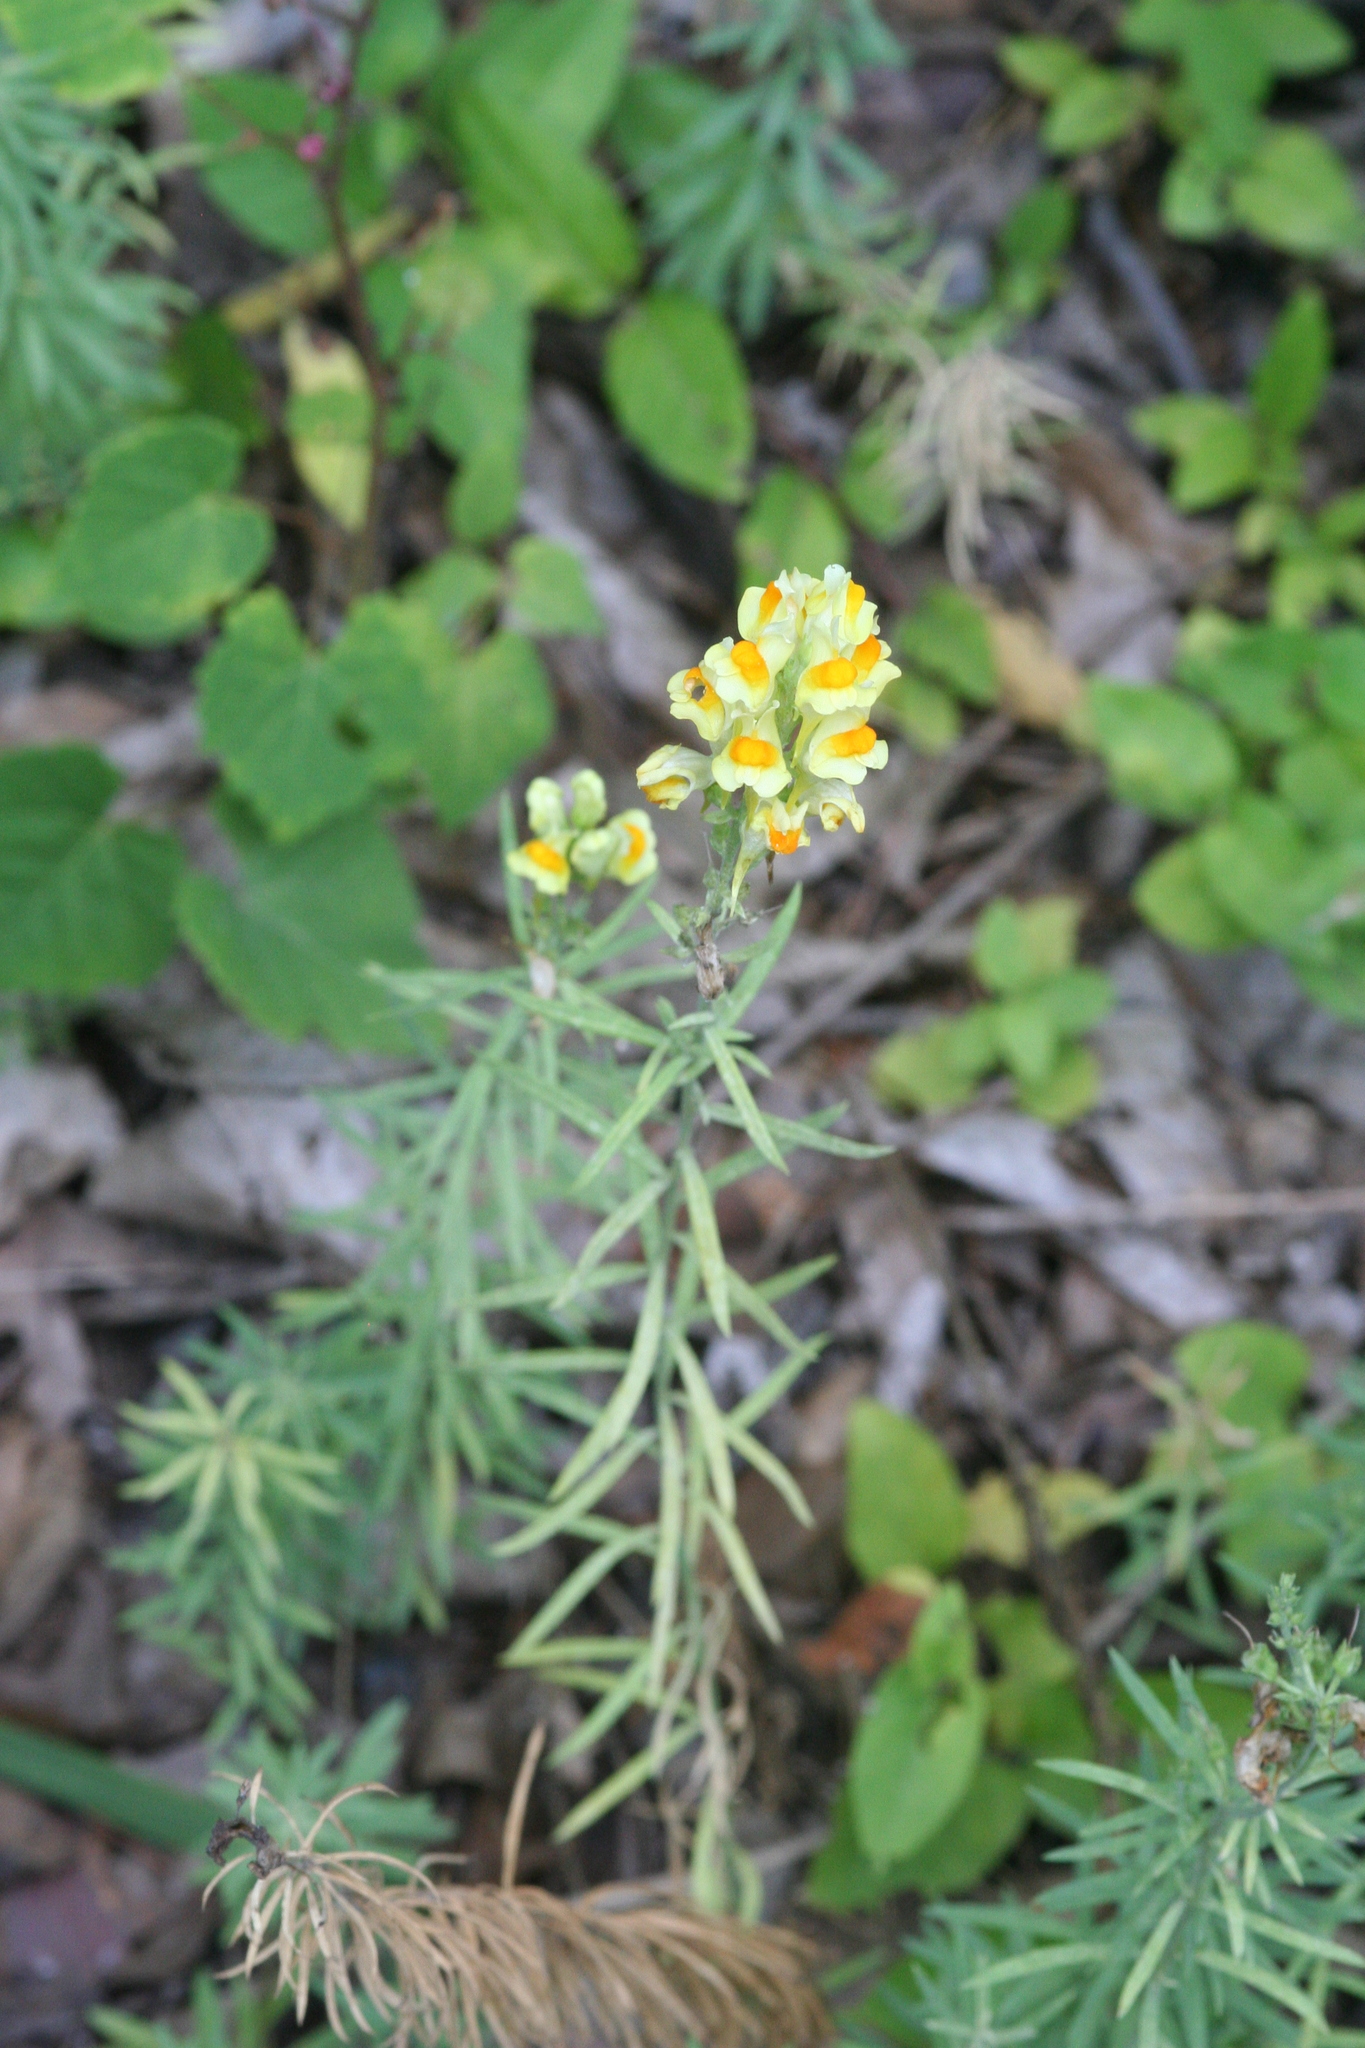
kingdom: Plantae
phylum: Tracheophyta
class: Magnoliopsida
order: Lamiales
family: Plantaginaceae
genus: Linaria
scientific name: Linaria vulgaris
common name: Butter and eggs
